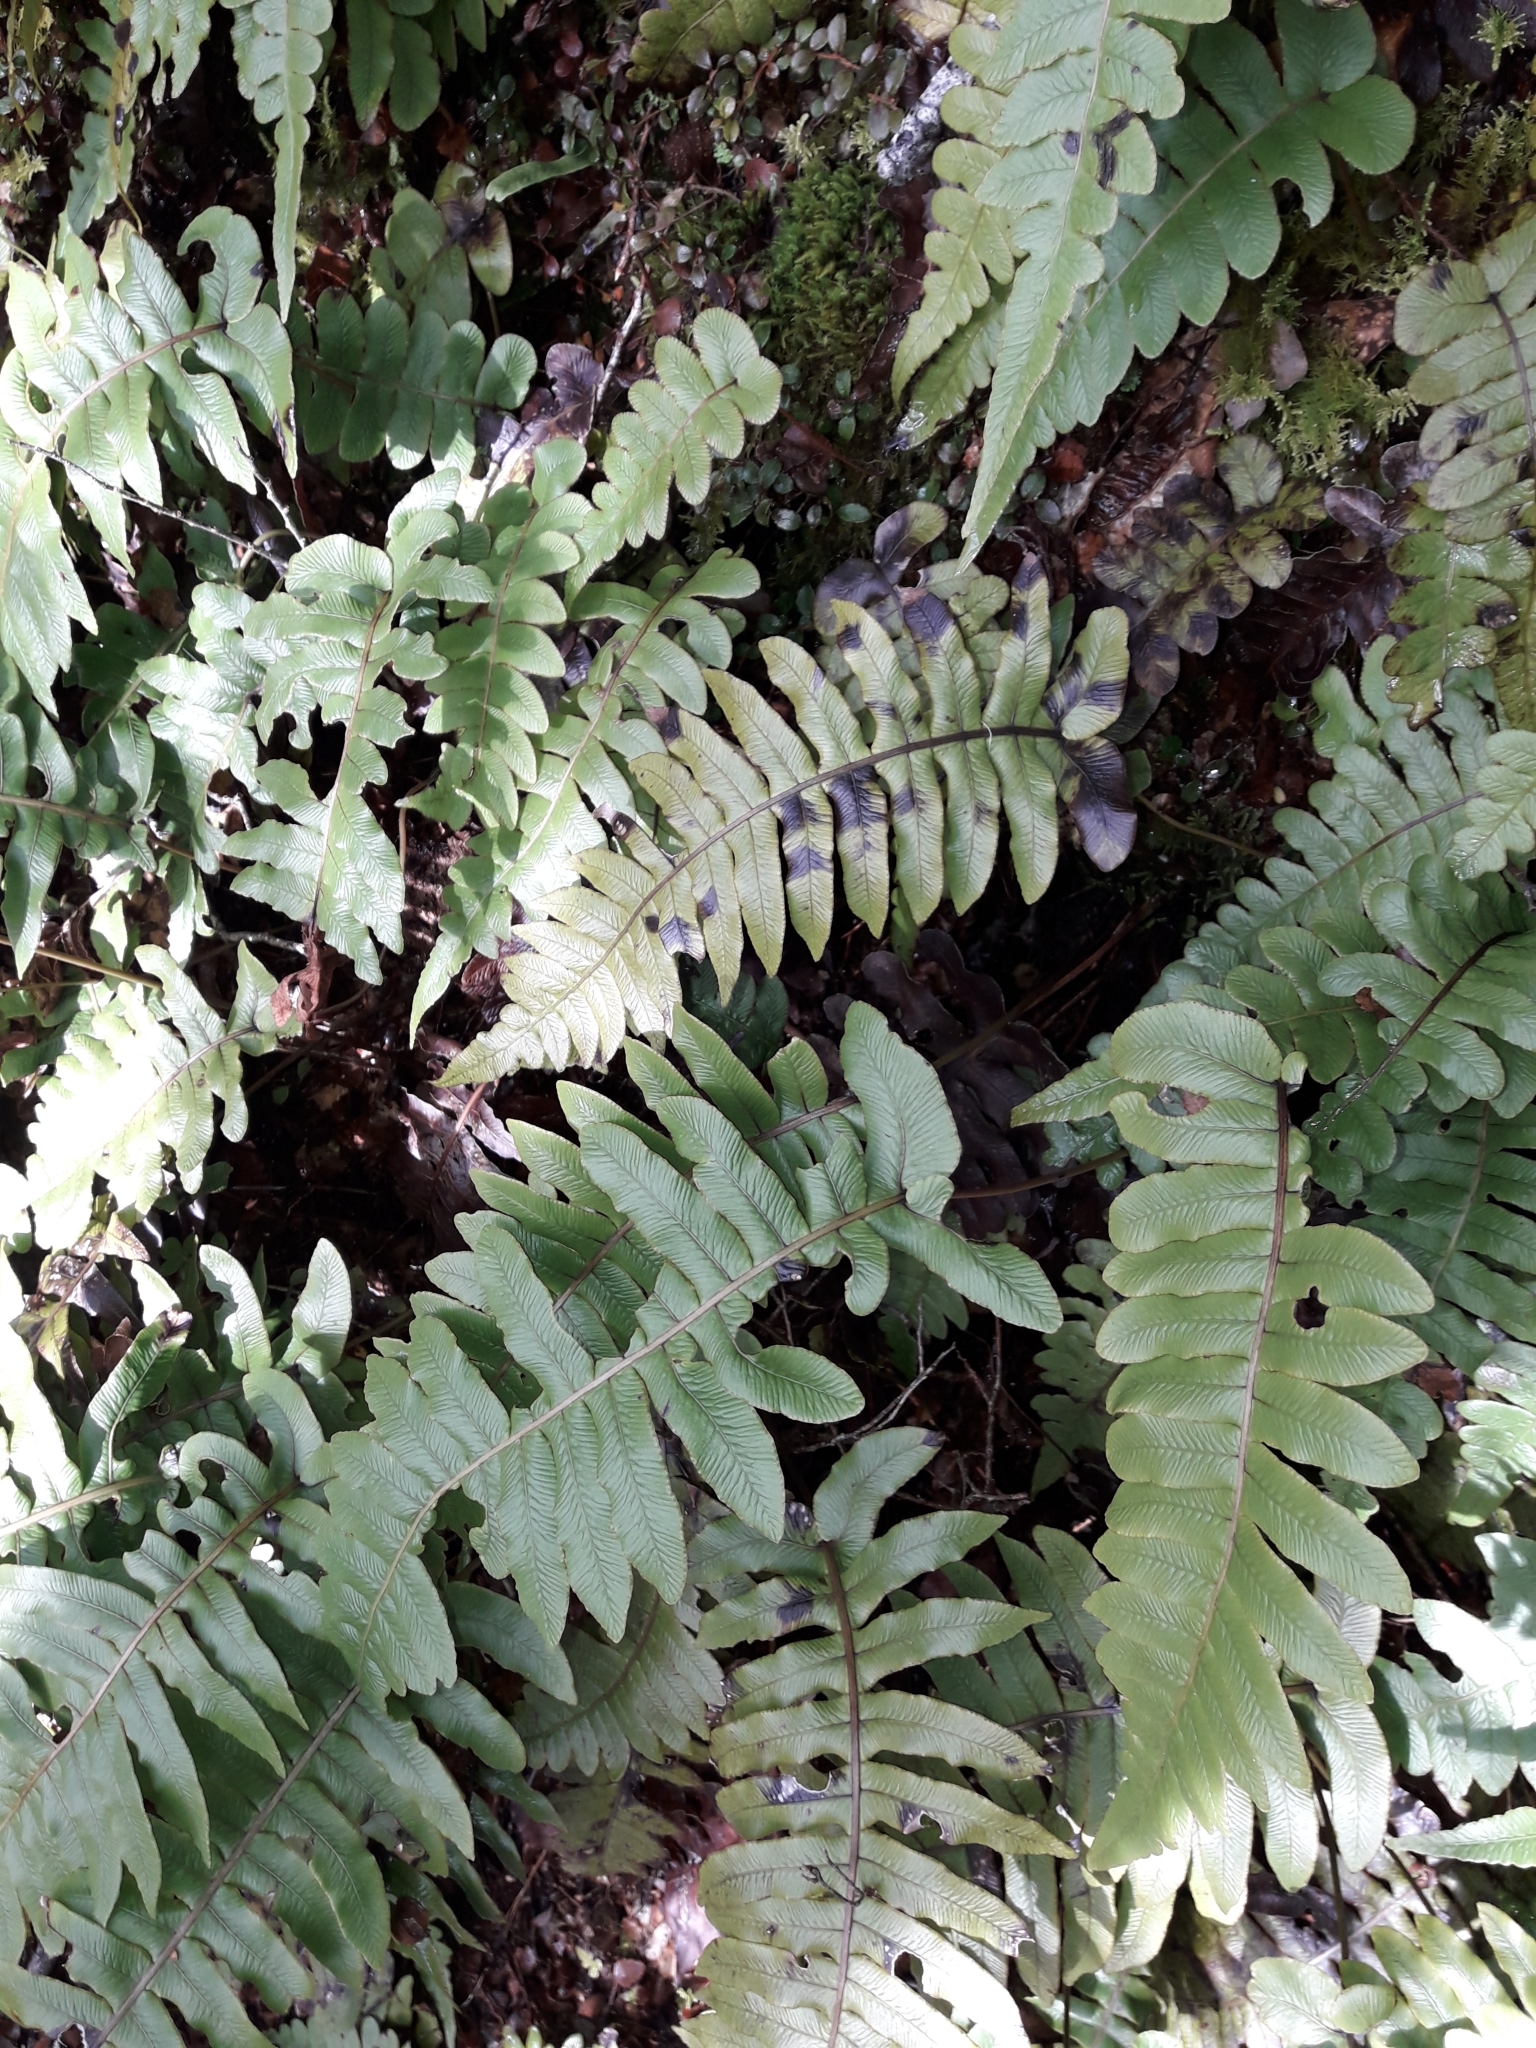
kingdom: Plantae
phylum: Tracheophyta
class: Polypodiopsida
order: Polypodiales
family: Blechnaceae
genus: Cranfillia
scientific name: Cranfillia deltoides
